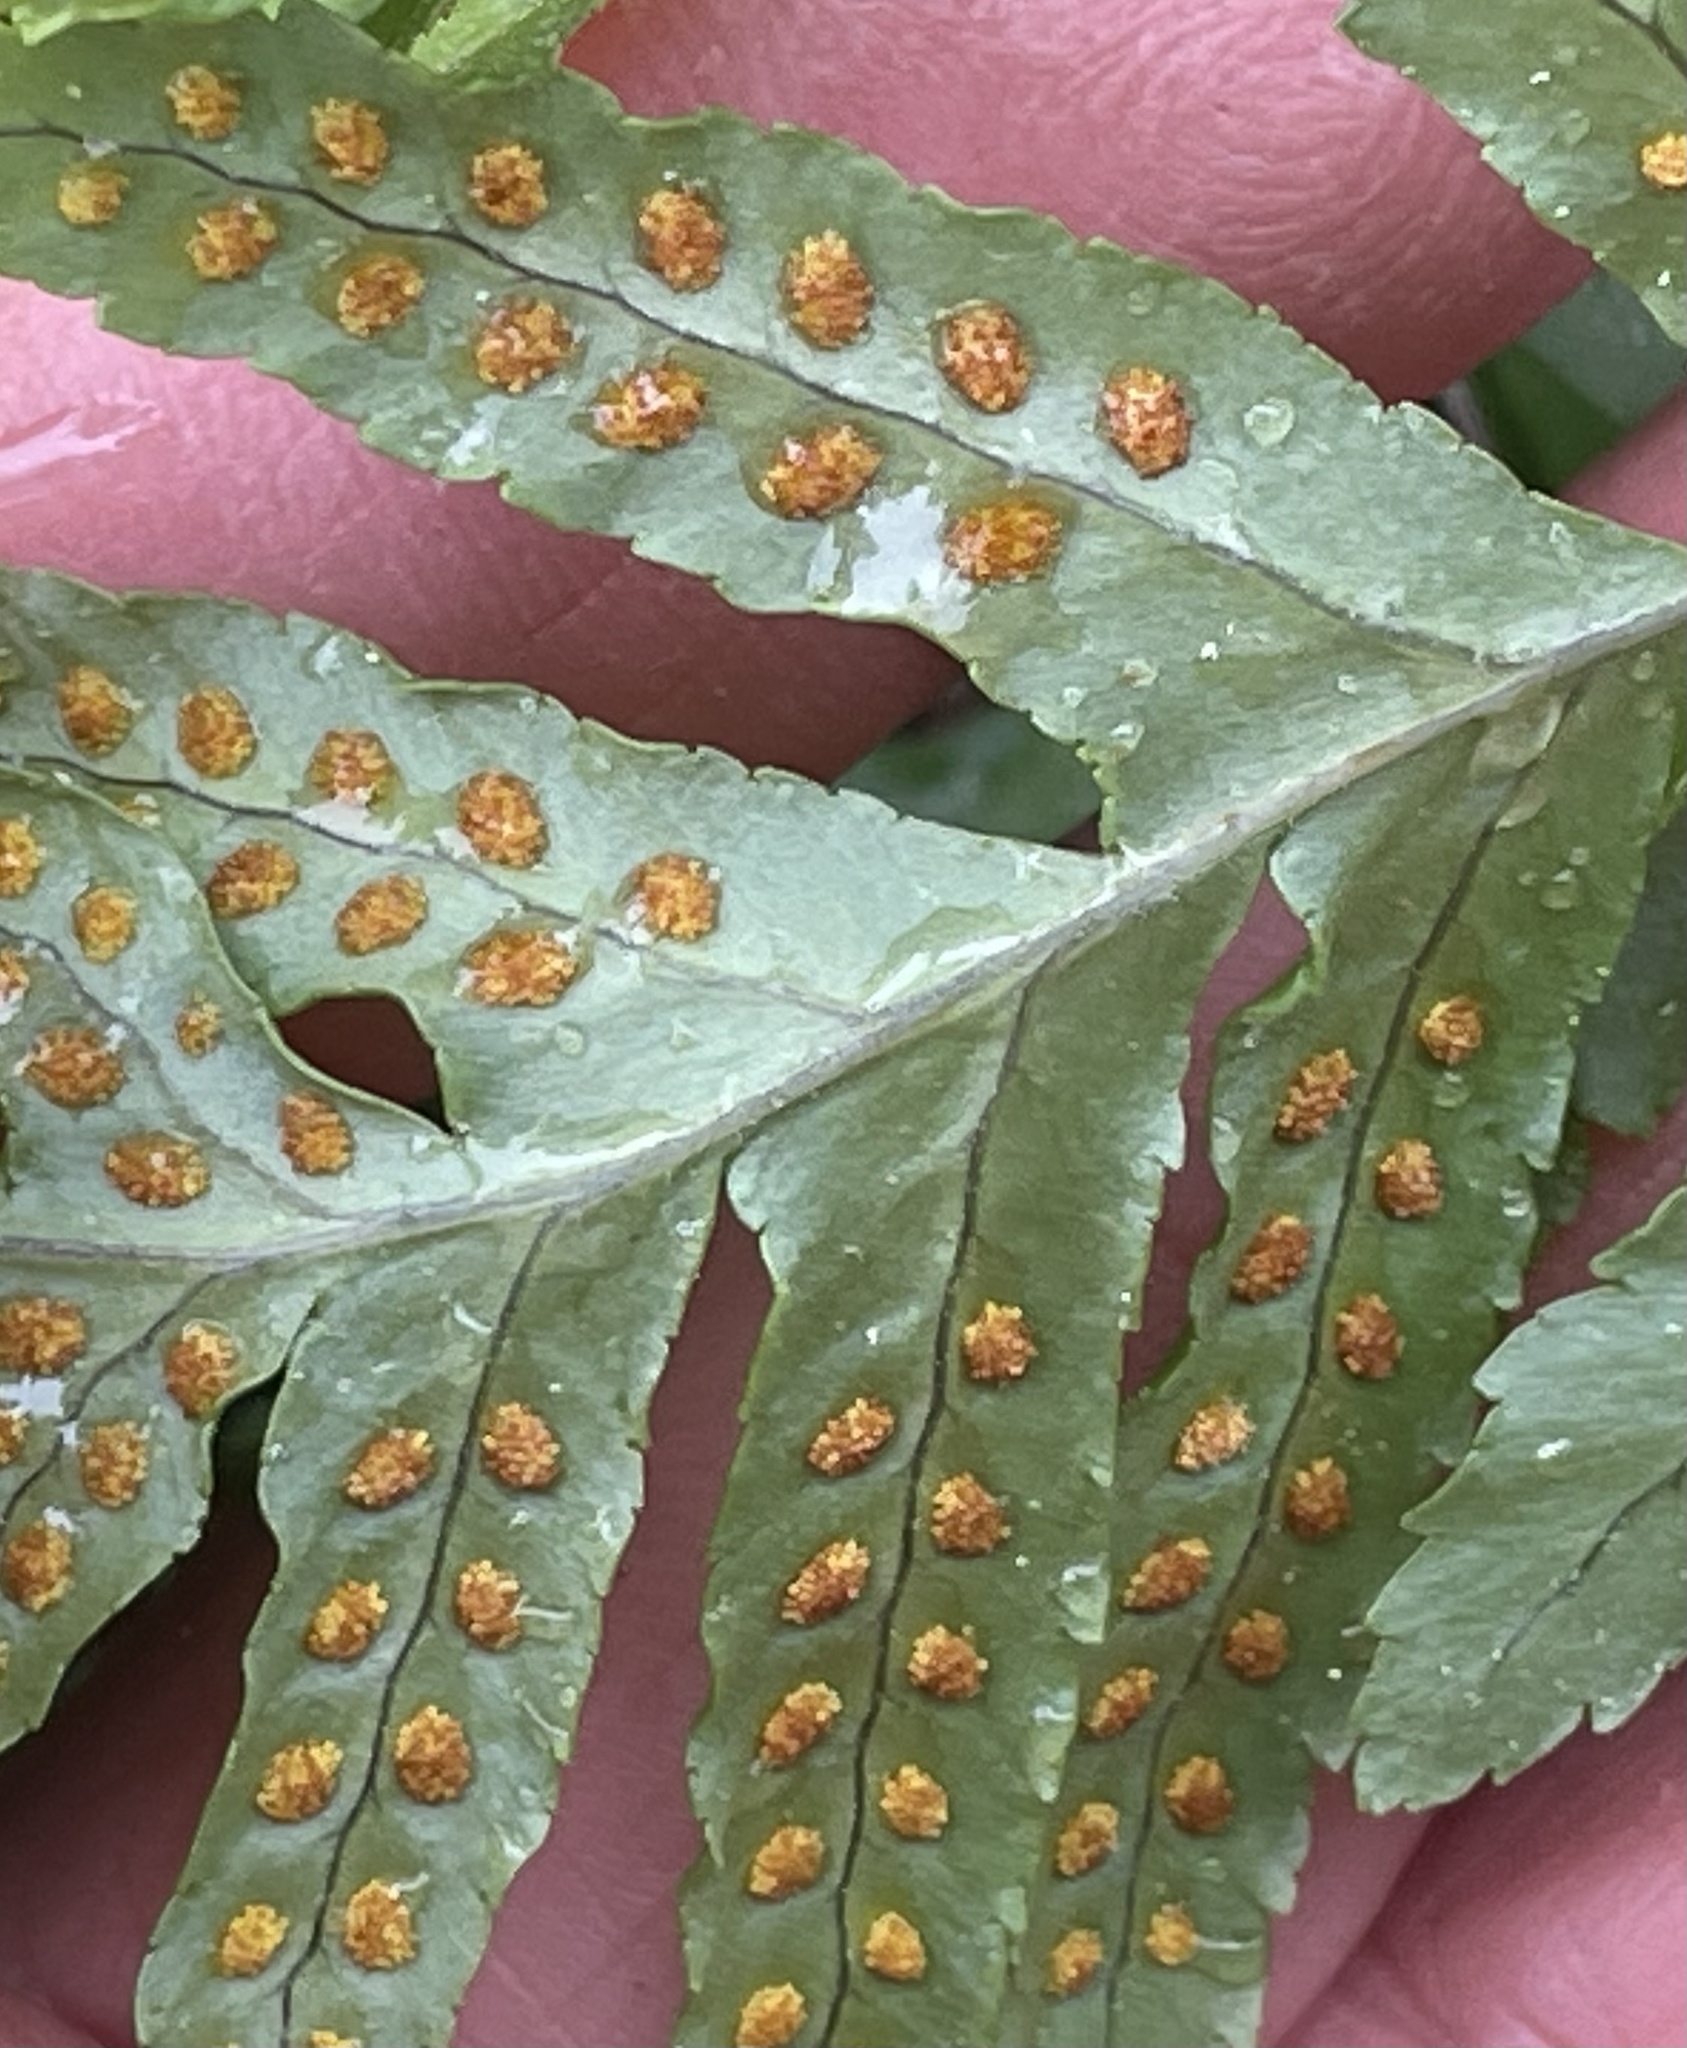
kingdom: Plantae
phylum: Tracheophyta
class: Polypodiopsida
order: Polypodiales
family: Polypodiaceae
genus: Polypodium
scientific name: Polypodium californicum
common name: California polypody
